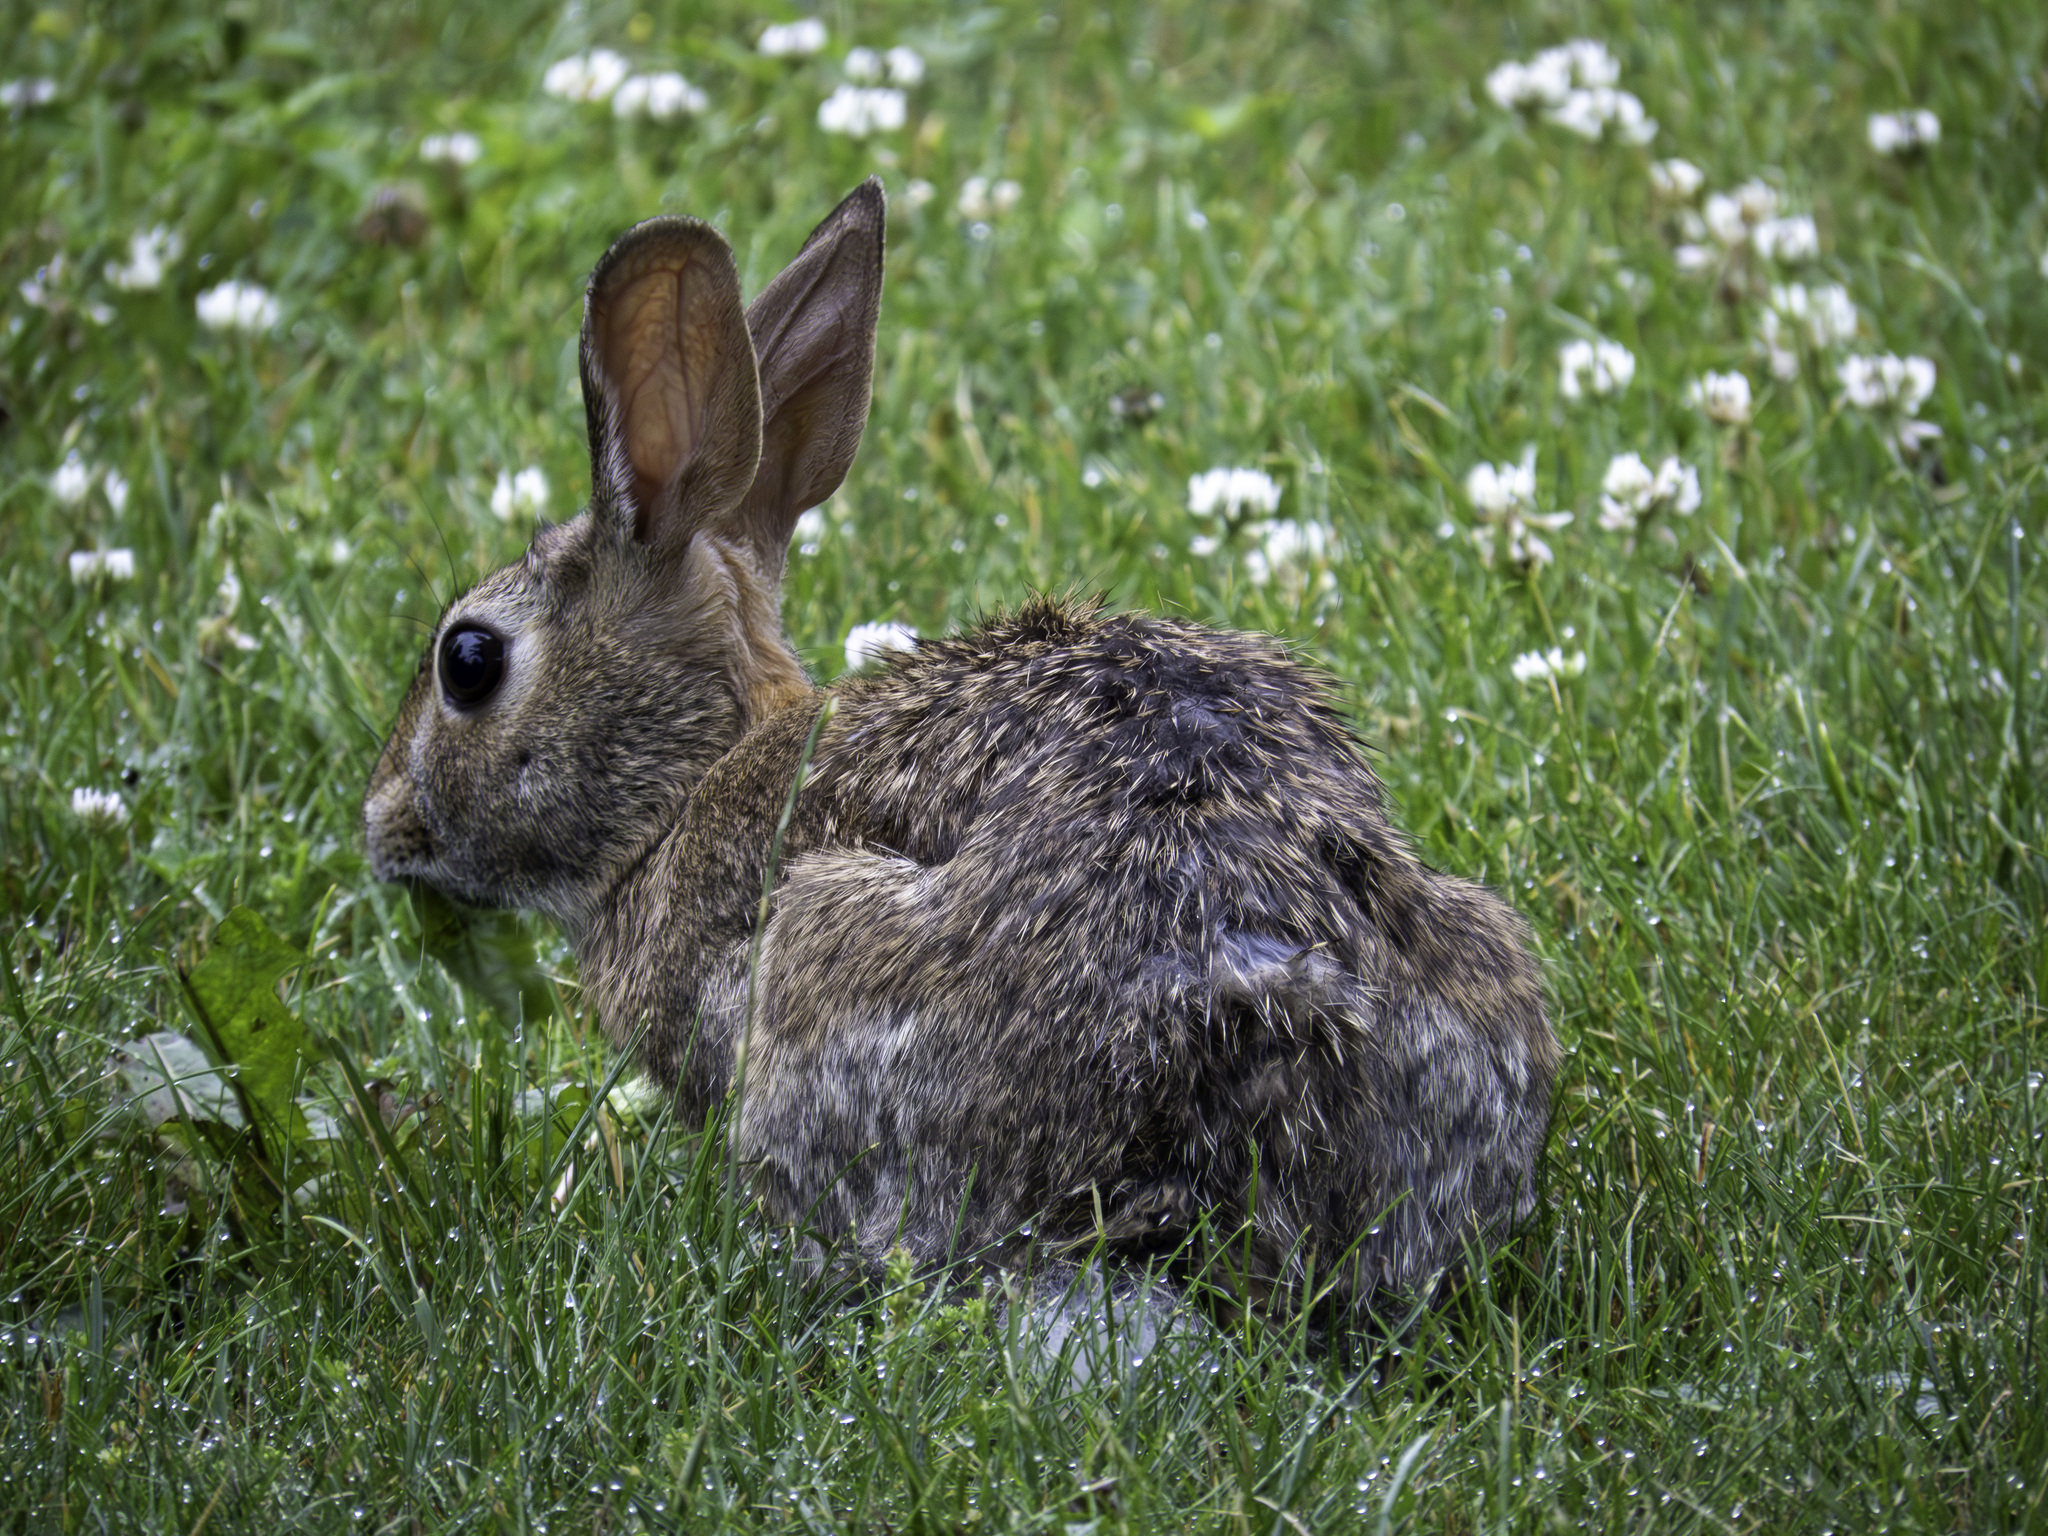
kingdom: Animalia
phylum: Chordata
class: Mammalia
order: Lagomorpha
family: Leporidae
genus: Sylvilagus
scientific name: Sylvilagus floridanus
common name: Eastern cottontail
